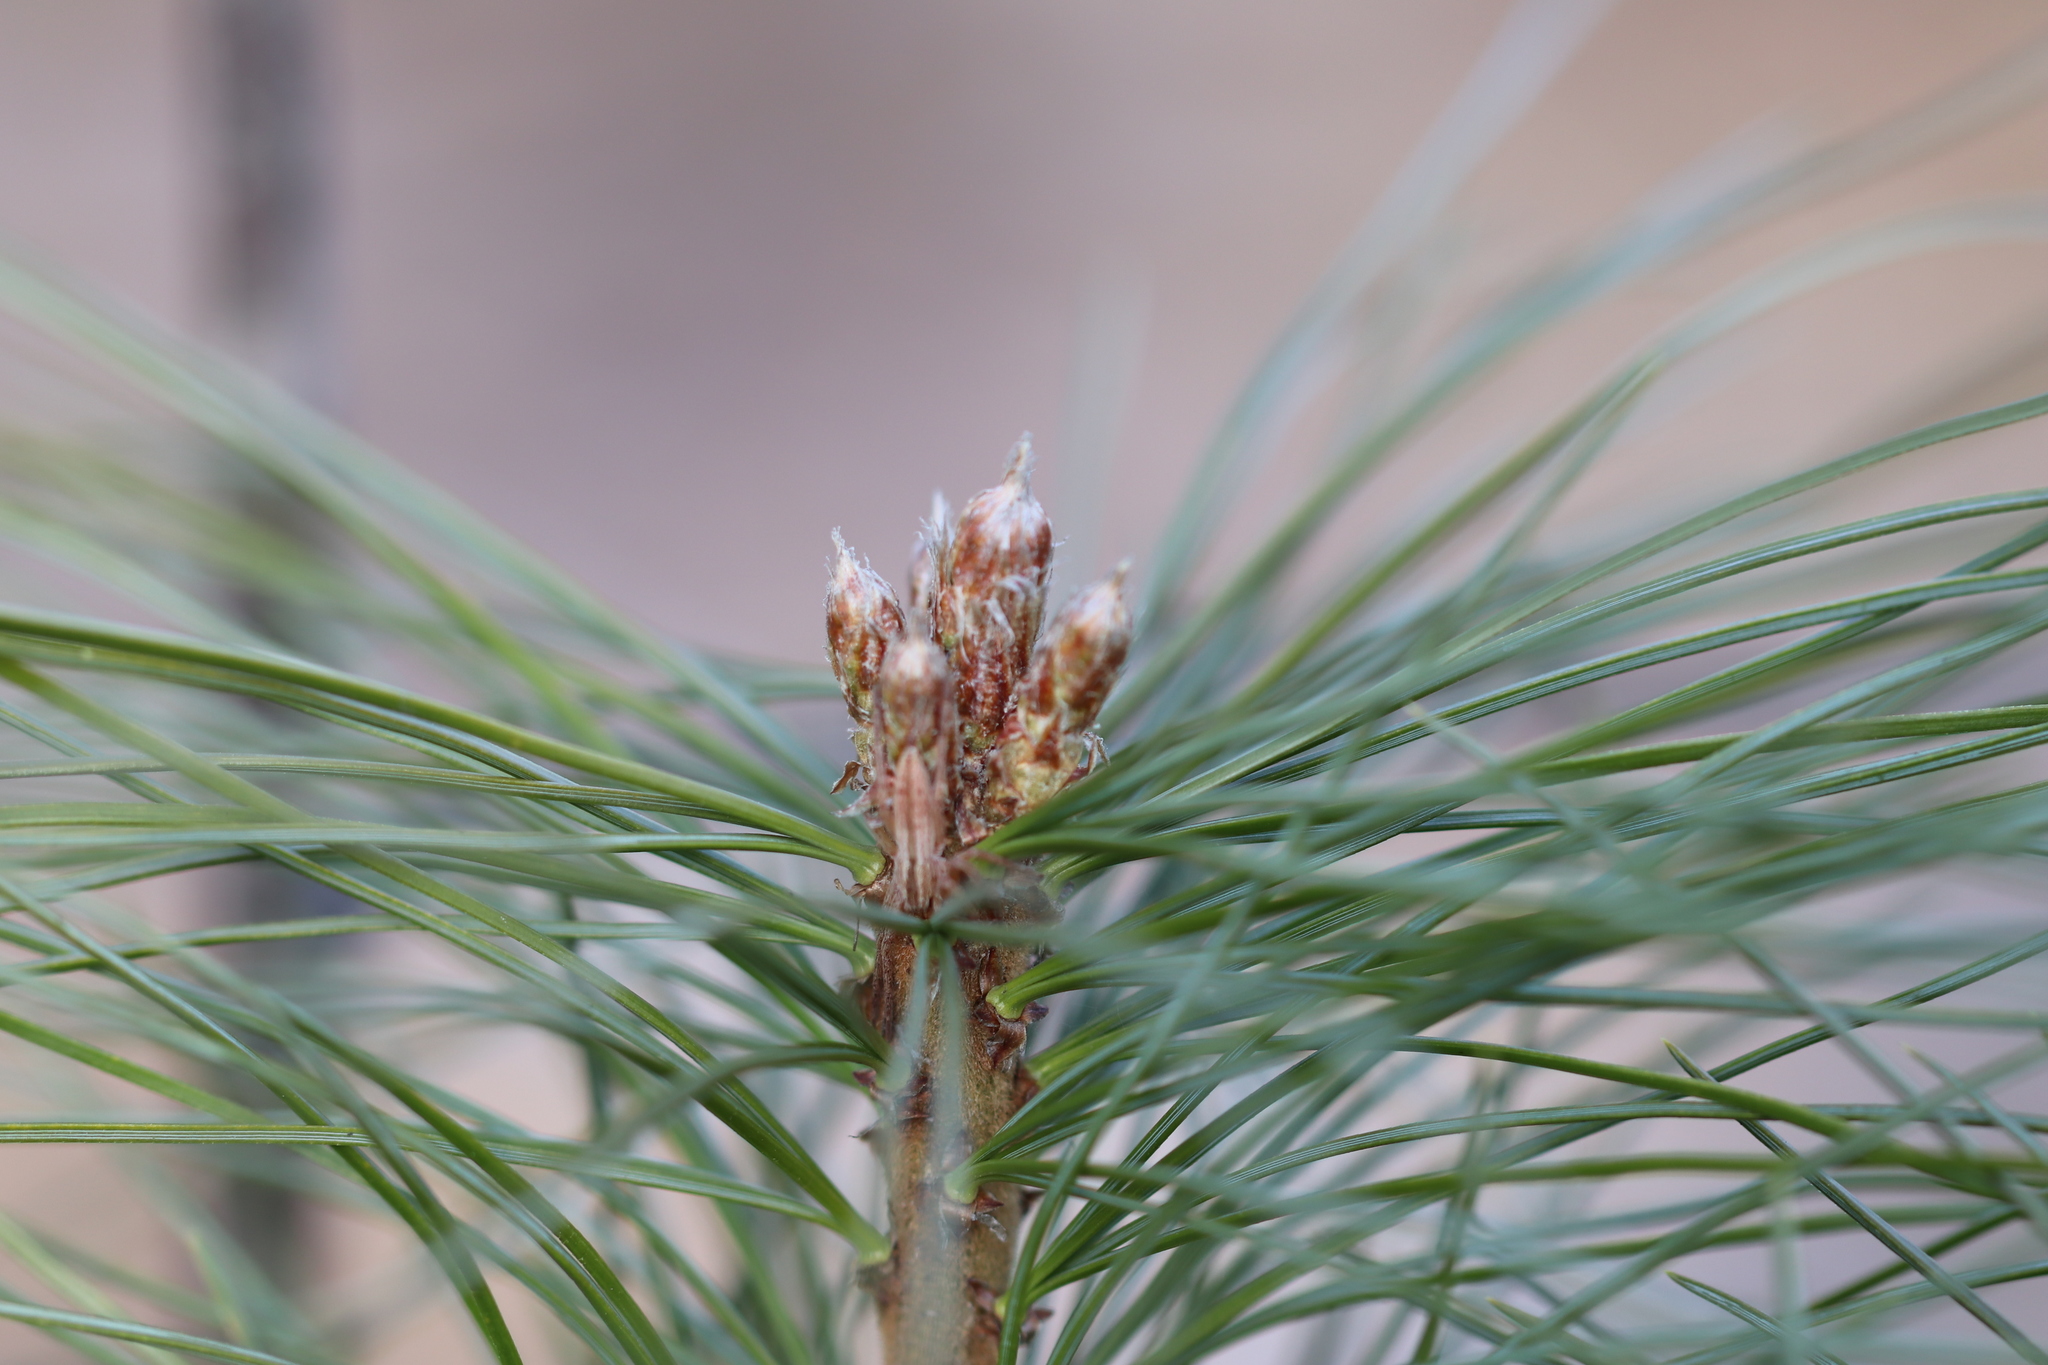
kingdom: Plantae
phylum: Tracheophyta
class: Pinopsida
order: Pinales
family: Pinaceae
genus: Pinus
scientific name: Pinus sibirica
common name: Siberian pine
